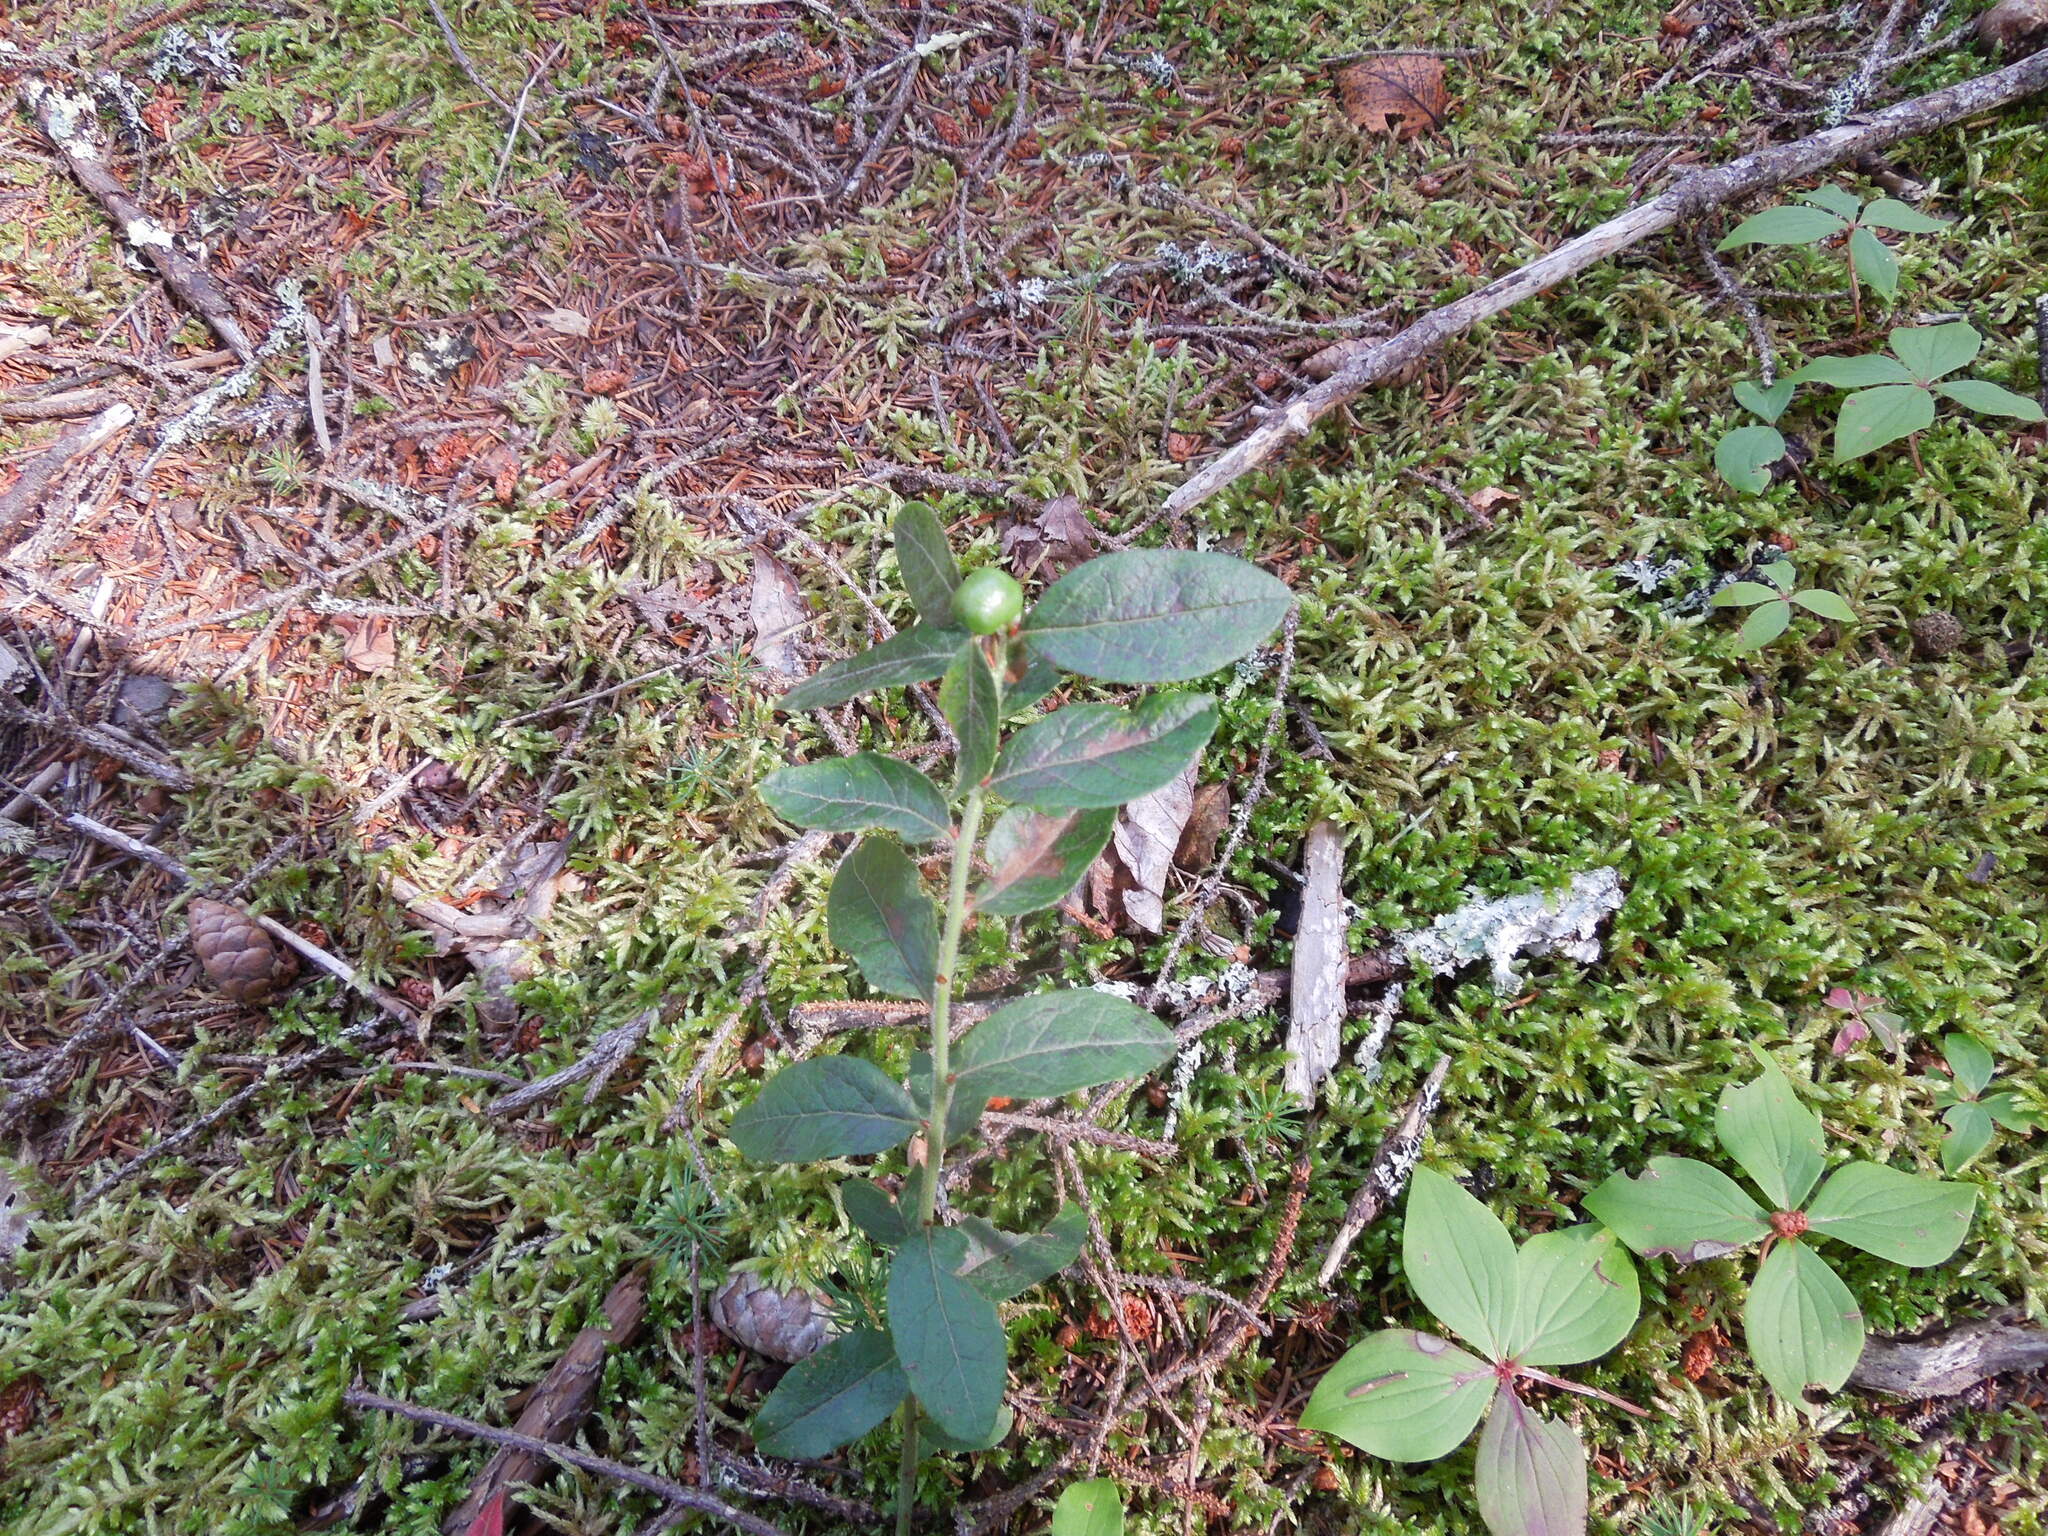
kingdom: Plantae
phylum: Tracheophyta
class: Magnoliopsida
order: Ericales
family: Ericaceae
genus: Vaccinium
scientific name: Vaccinium myrtilloides
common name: Canada blueberry
